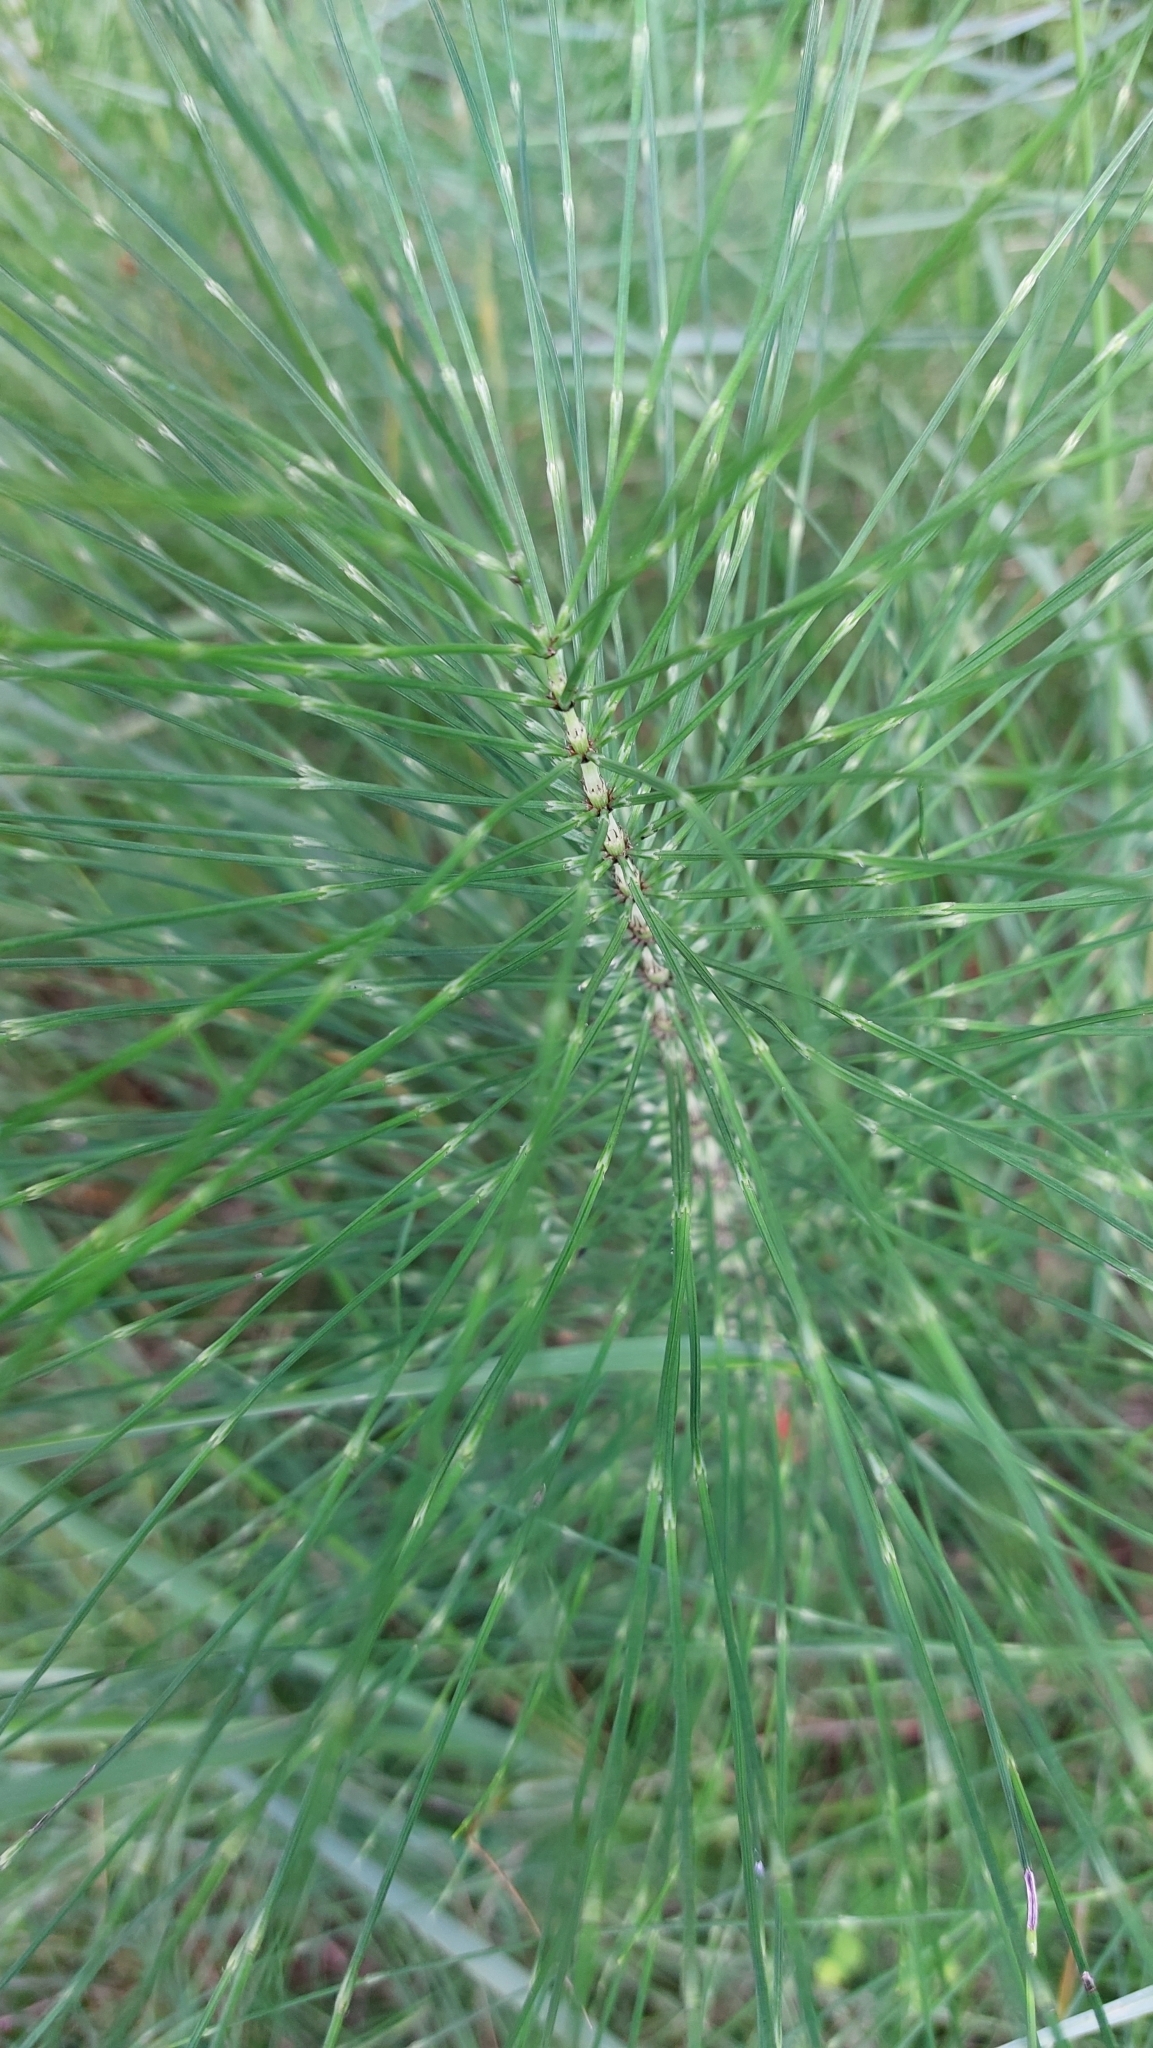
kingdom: Plantae
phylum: Tracheophyta
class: Polypodiopsida
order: Equisetales
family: Equisetaceae
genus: Equisetum
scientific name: Equisetum telmateia
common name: Great horsetail
